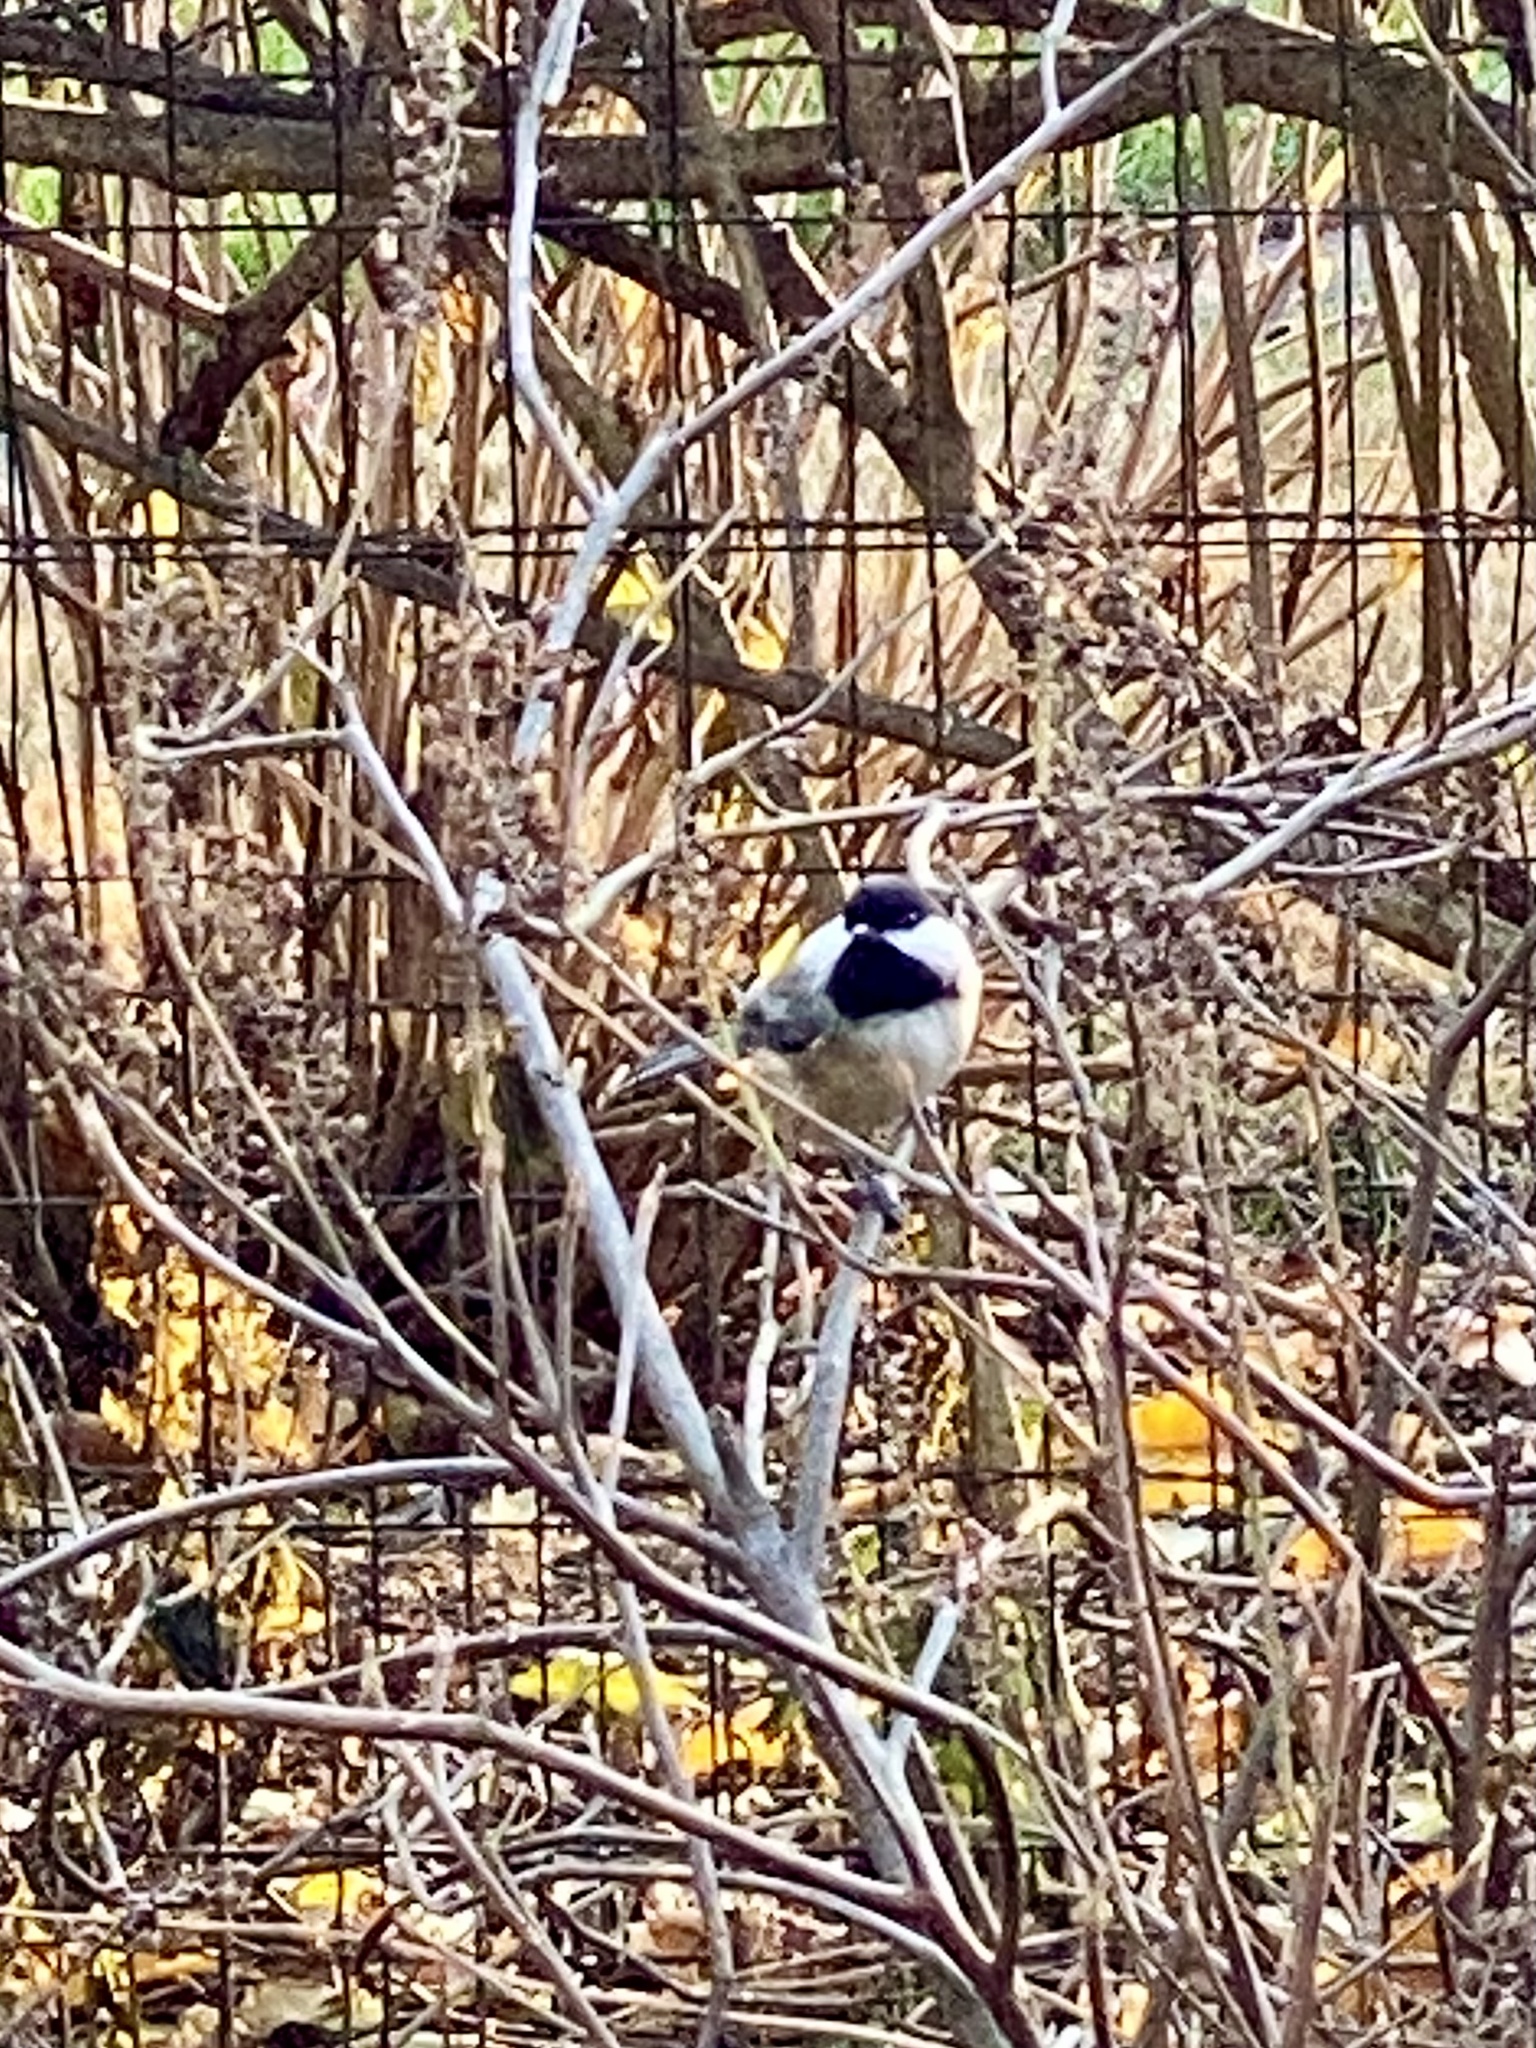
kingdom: Animalia
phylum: Chordata
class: Aves
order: Passeriformes
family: Paridae
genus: Poecile
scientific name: Poecile atricapillus
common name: Black-capped chickadee
